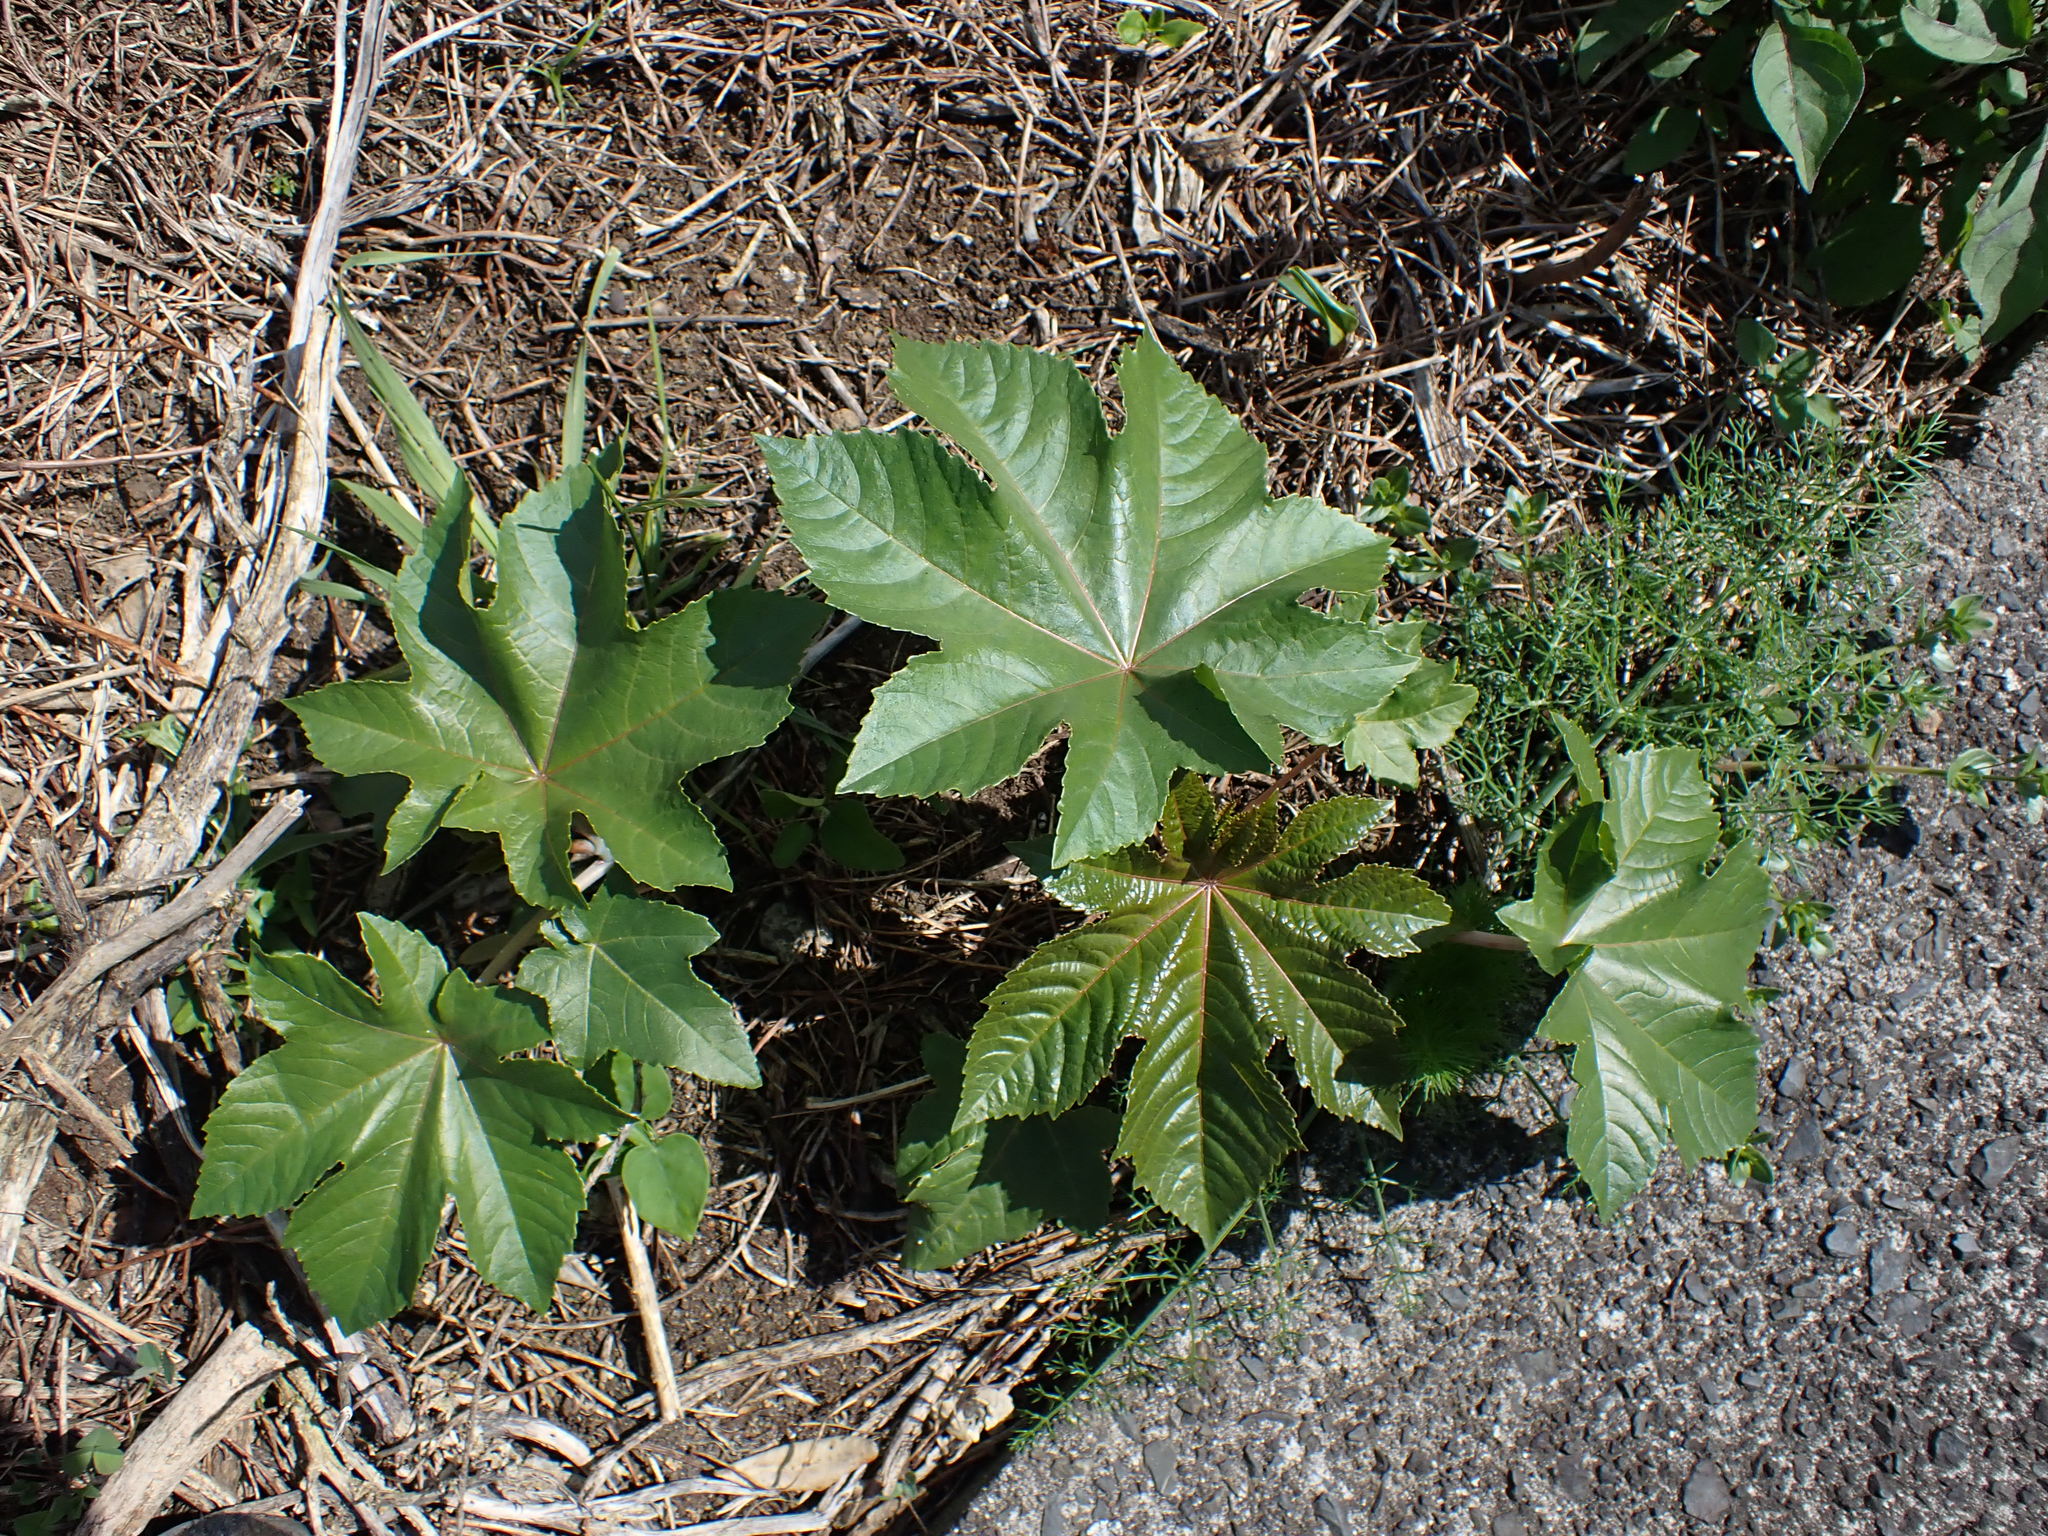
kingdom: Plantae
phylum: Tracheophyta
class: Magnoliopsida
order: Malpighiales
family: Euphorbiaceae
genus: Ricinus
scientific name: Ricinus communis
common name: Castor-oil-plant
